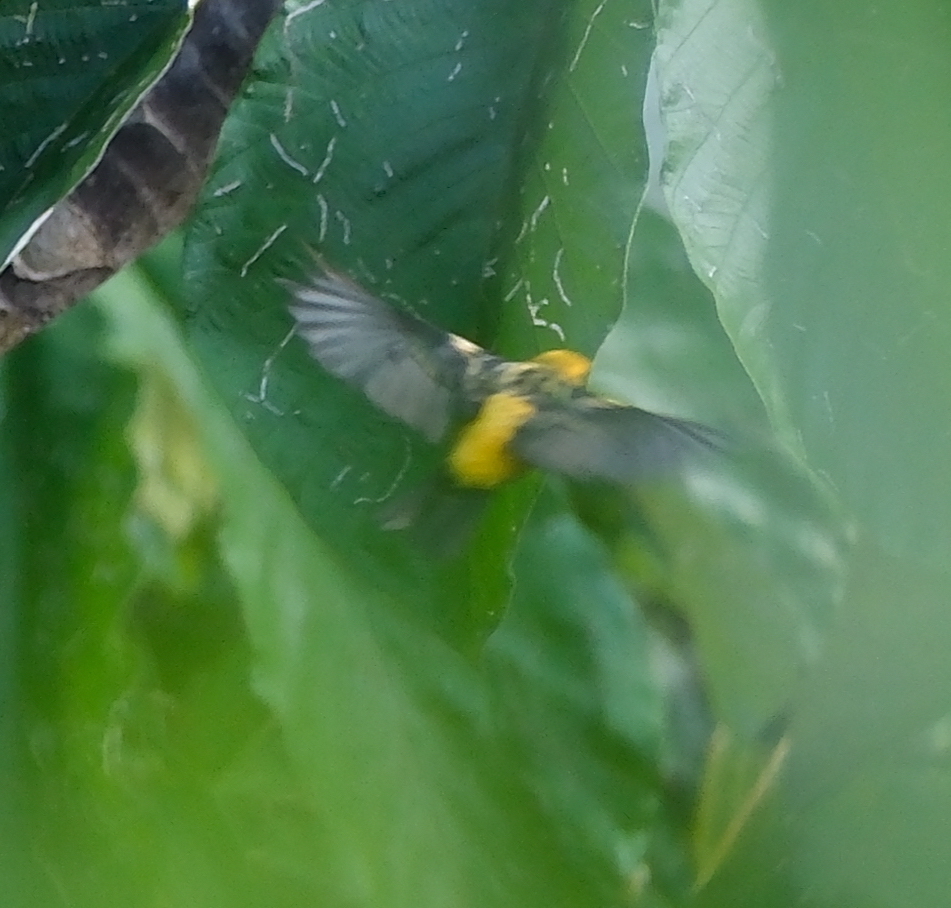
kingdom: Animalia
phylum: Chordata
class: Aves
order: Passeriformes
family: Thraupidae
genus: Tangara
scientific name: Tangara arthus
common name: Golden tanager
